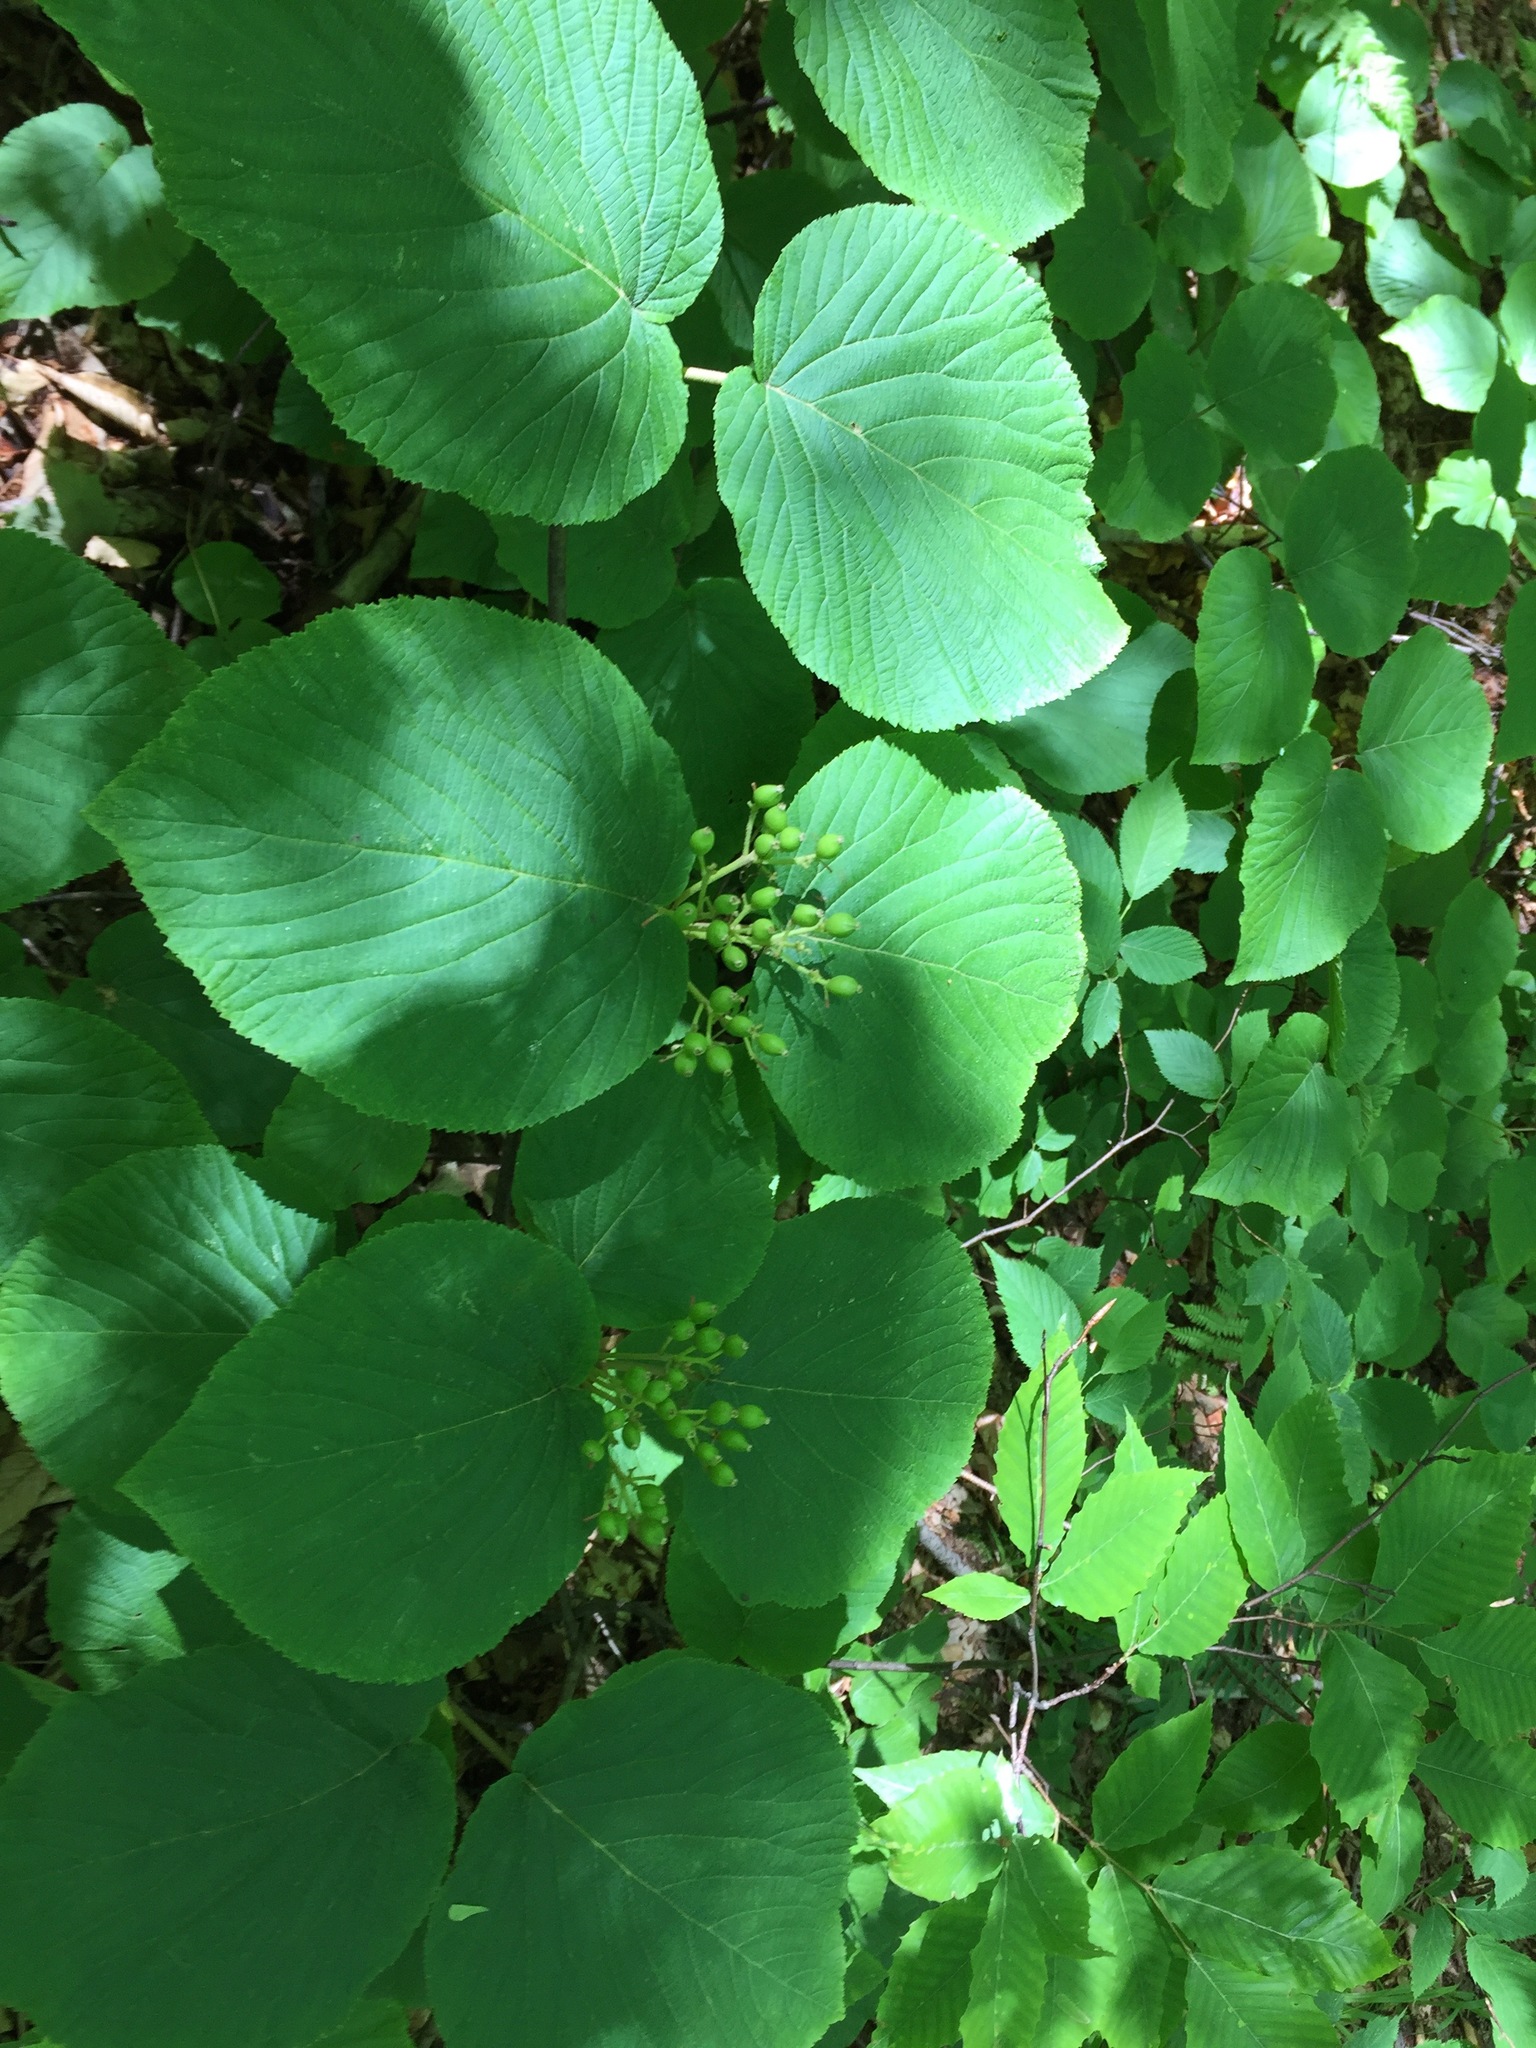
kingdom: Plantae
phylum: Tracheophyta
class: Magnoliopsida
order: Dipsacales
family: Viburnaceae
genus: Viburnum
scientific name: Viburnum lantanoides
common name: Hobblebush
